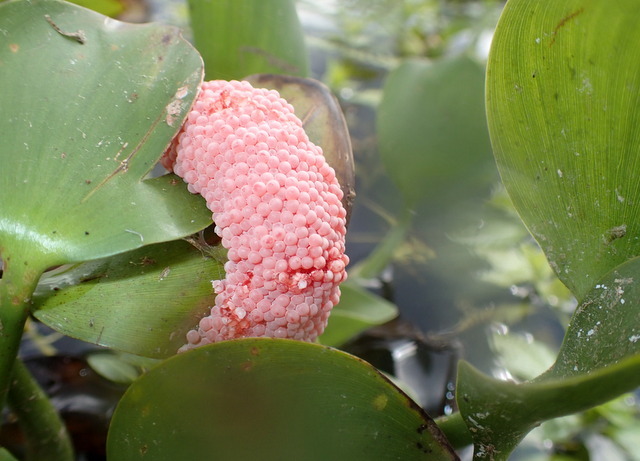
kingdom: Animalia
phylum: Mollusca
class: Gastropoda
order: Architaenioglossa
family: Ampullariidae
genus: Pomacea
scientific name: Pomacea maculata
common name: Giant applesnail
